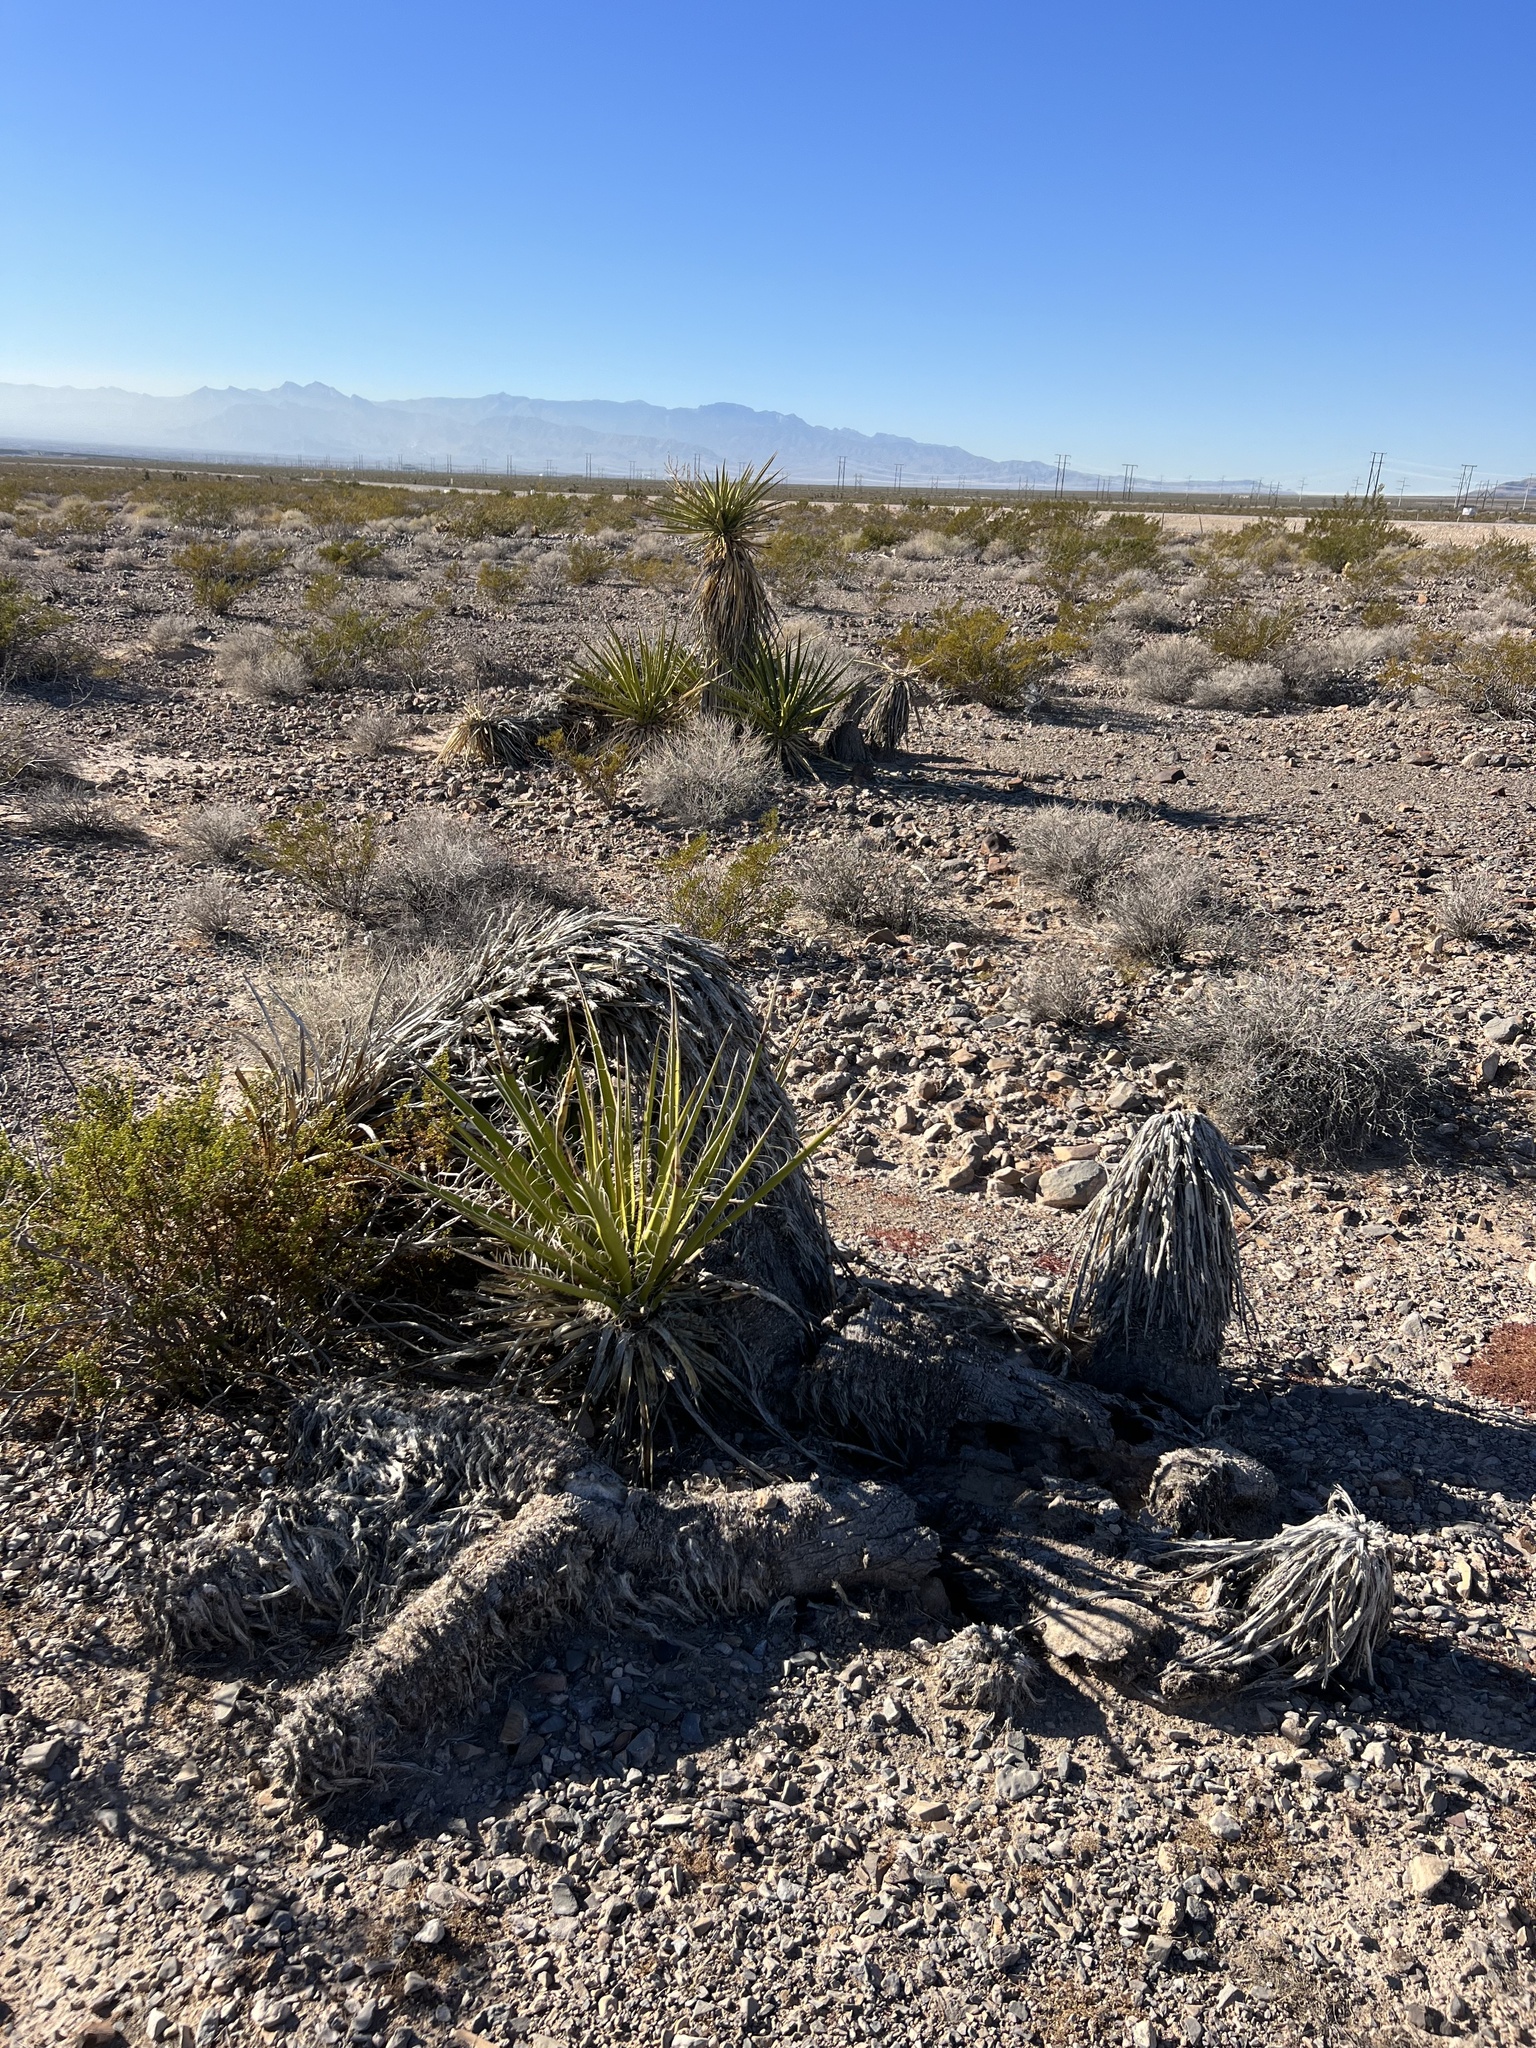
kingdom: Plantae
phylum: Tracheophyta
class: Liliopsida
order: Asparagales
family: Asparagaceae
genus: Yucca
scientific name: Yucca schidigera
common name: Mojave yucca
